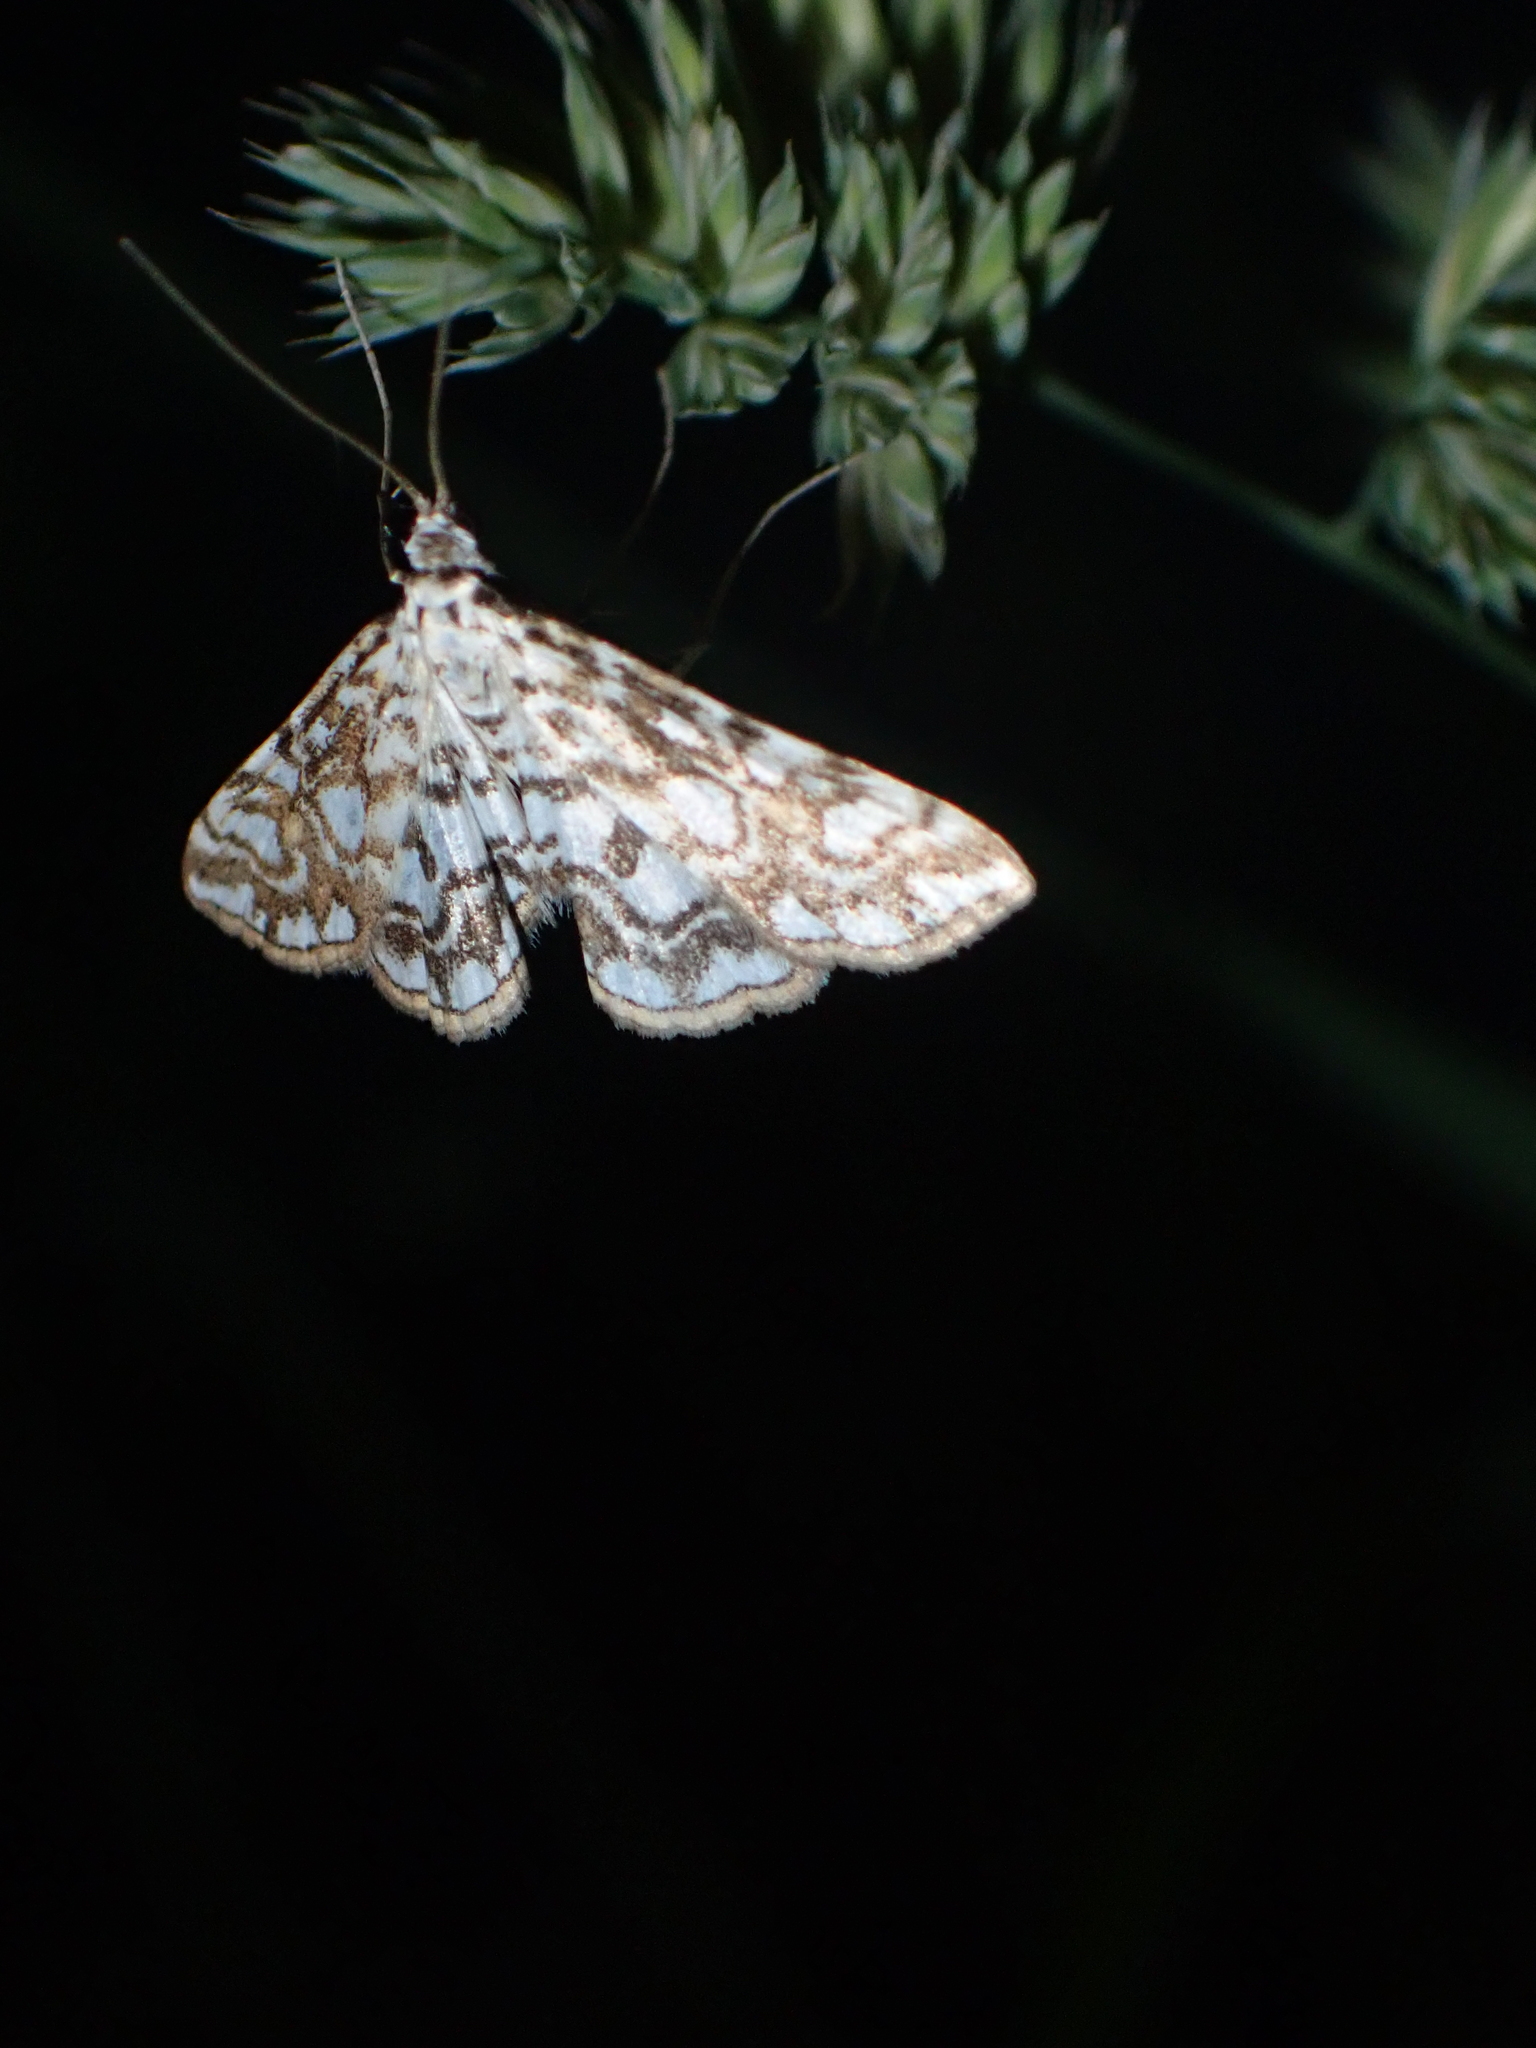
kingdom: Animalia
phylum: Arthropoda
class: Insecta
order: Lepidoptera
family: Crambidae
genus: Elophila
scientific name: Elophila nymphaeata
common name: Brown china-mark
